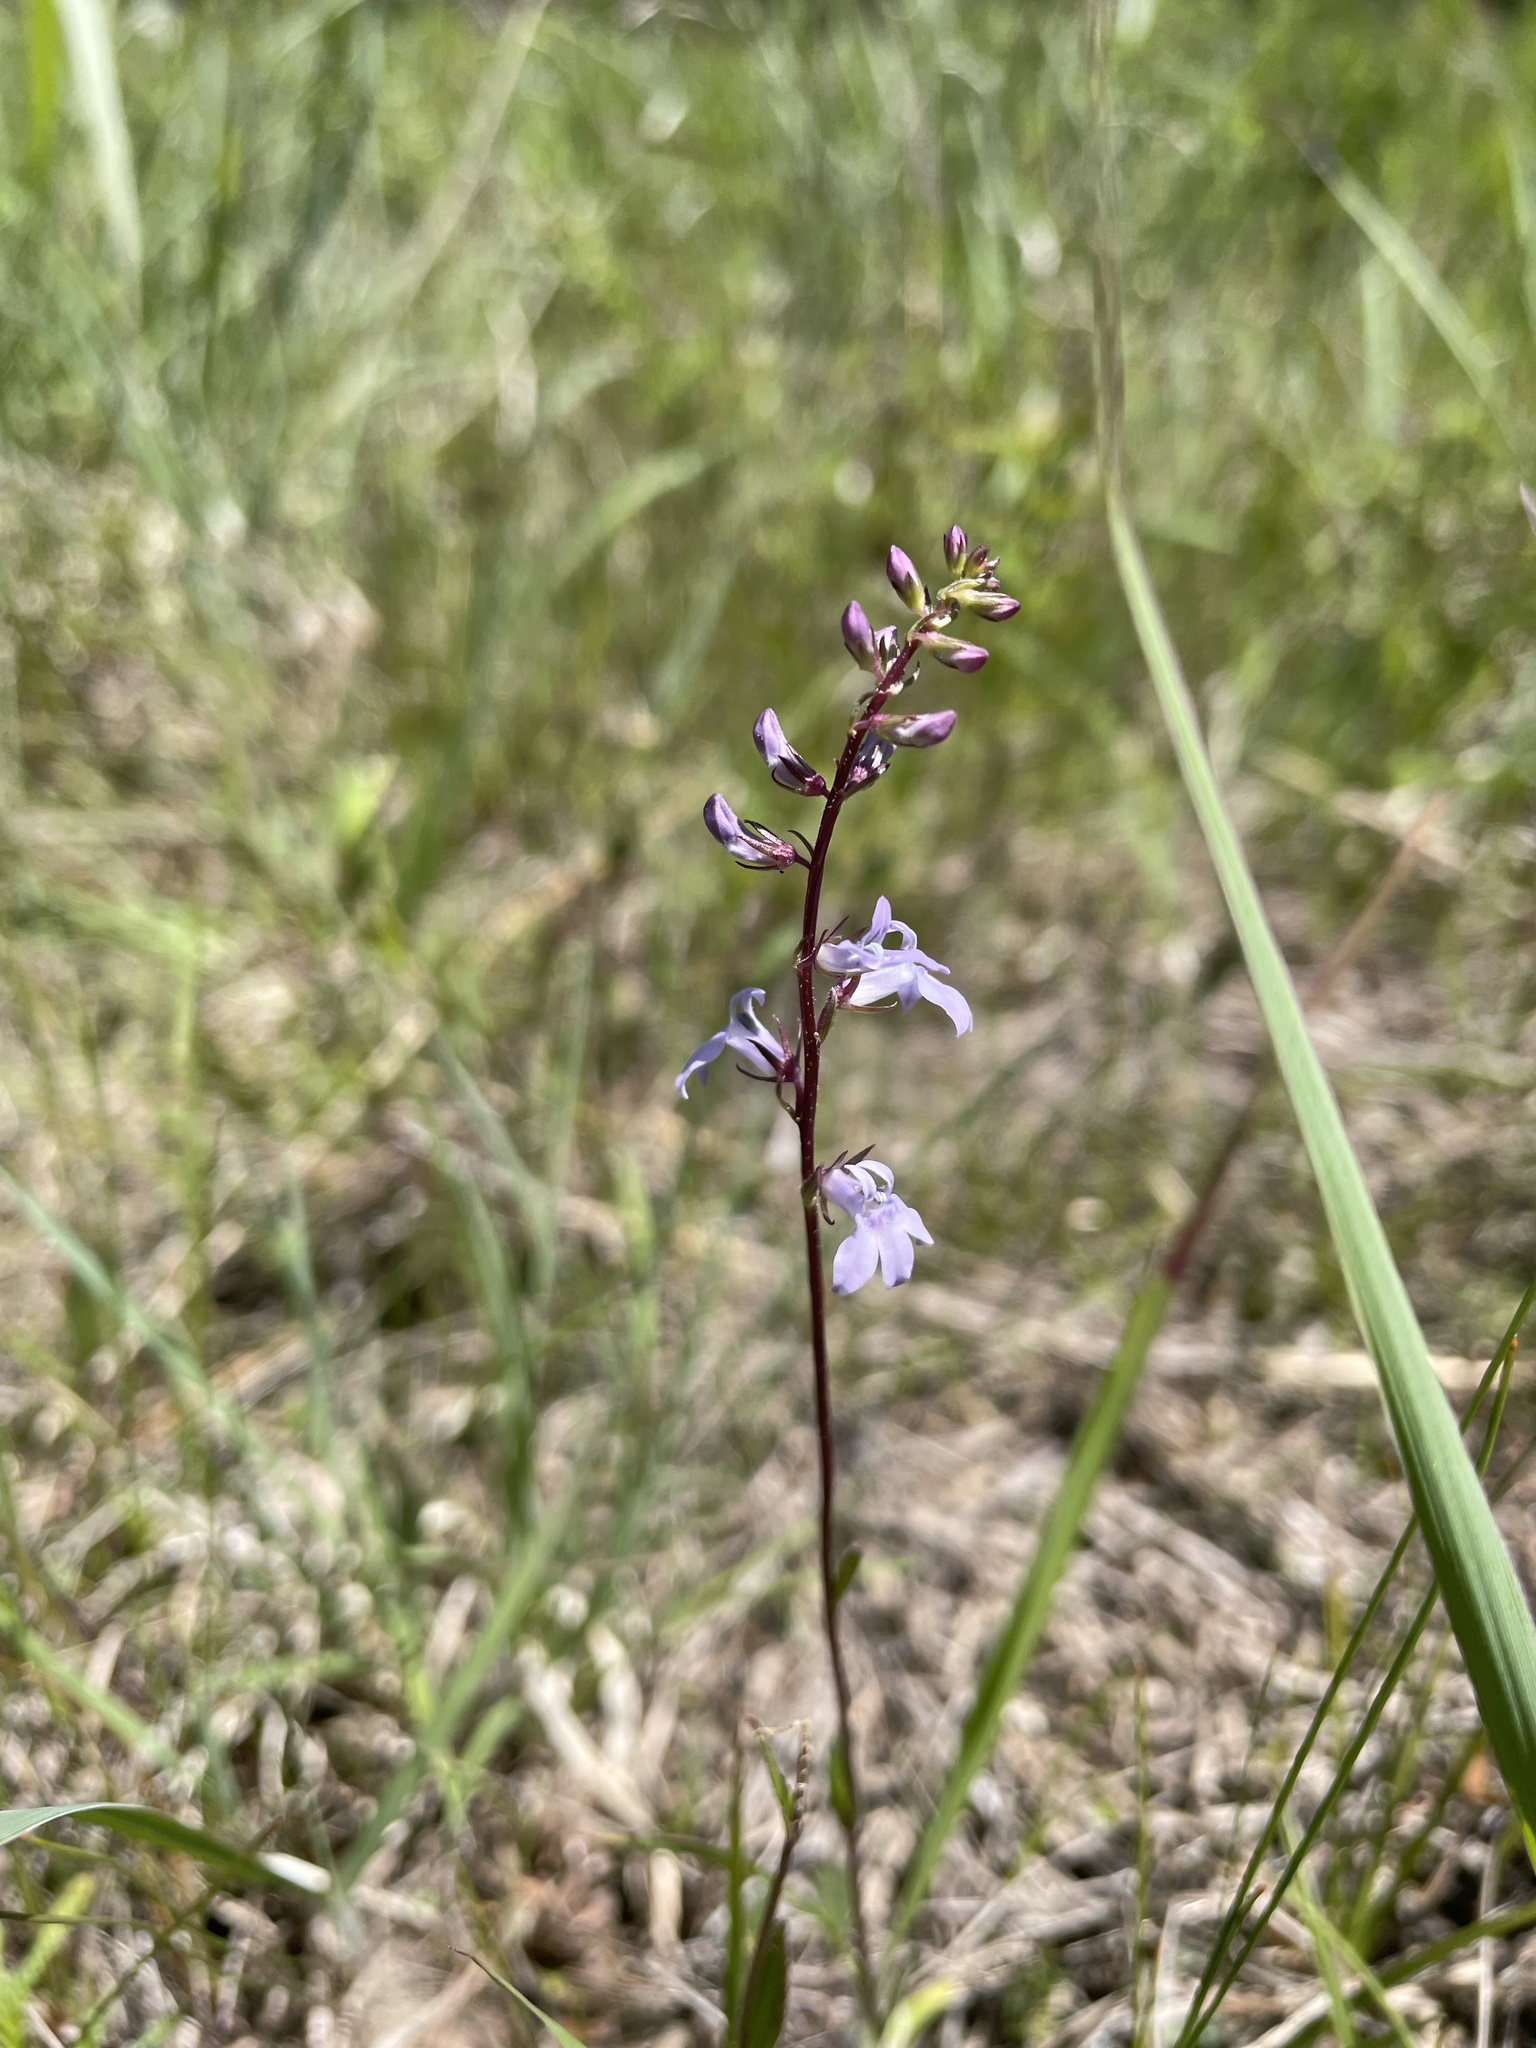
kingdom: Plantae
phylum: Tracheophyta
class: Magnoliopsida
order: Asterales
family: Campanulaceae
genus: Lobelia
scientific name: Lobelia spicata
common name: Pale-spike lobelia
